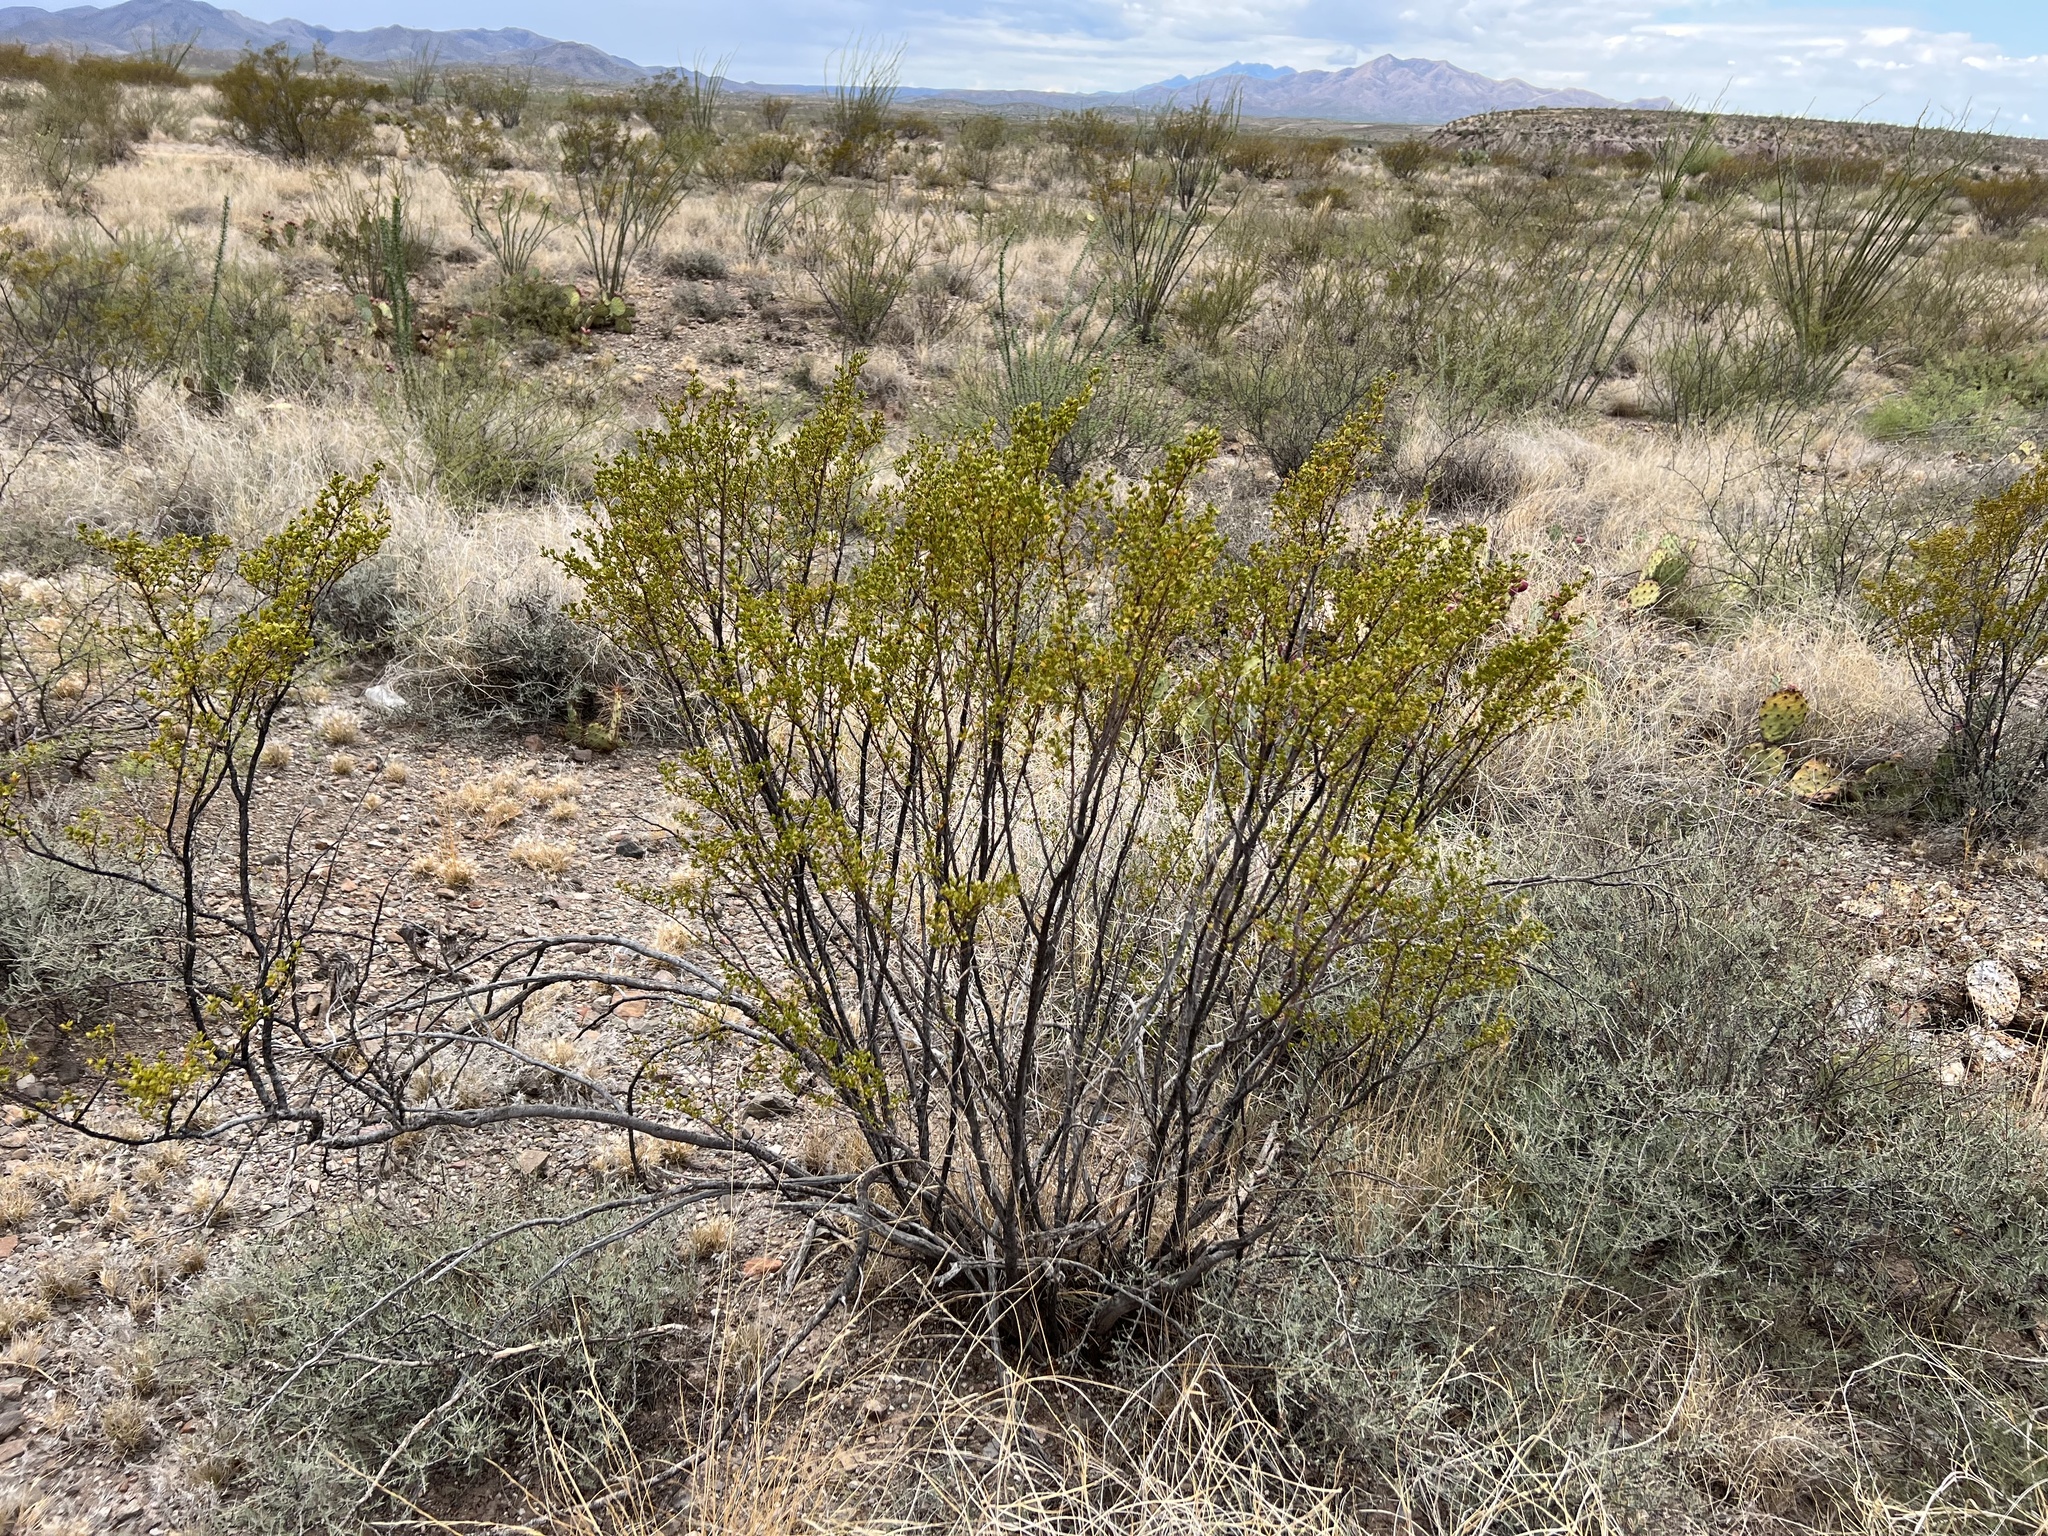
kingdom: Plantae
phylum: Tracheophyta
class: Magnoliopsida
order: Zygophyllales
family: Zygophyllaceae
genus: Larrea
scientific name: Larrea tridentata
